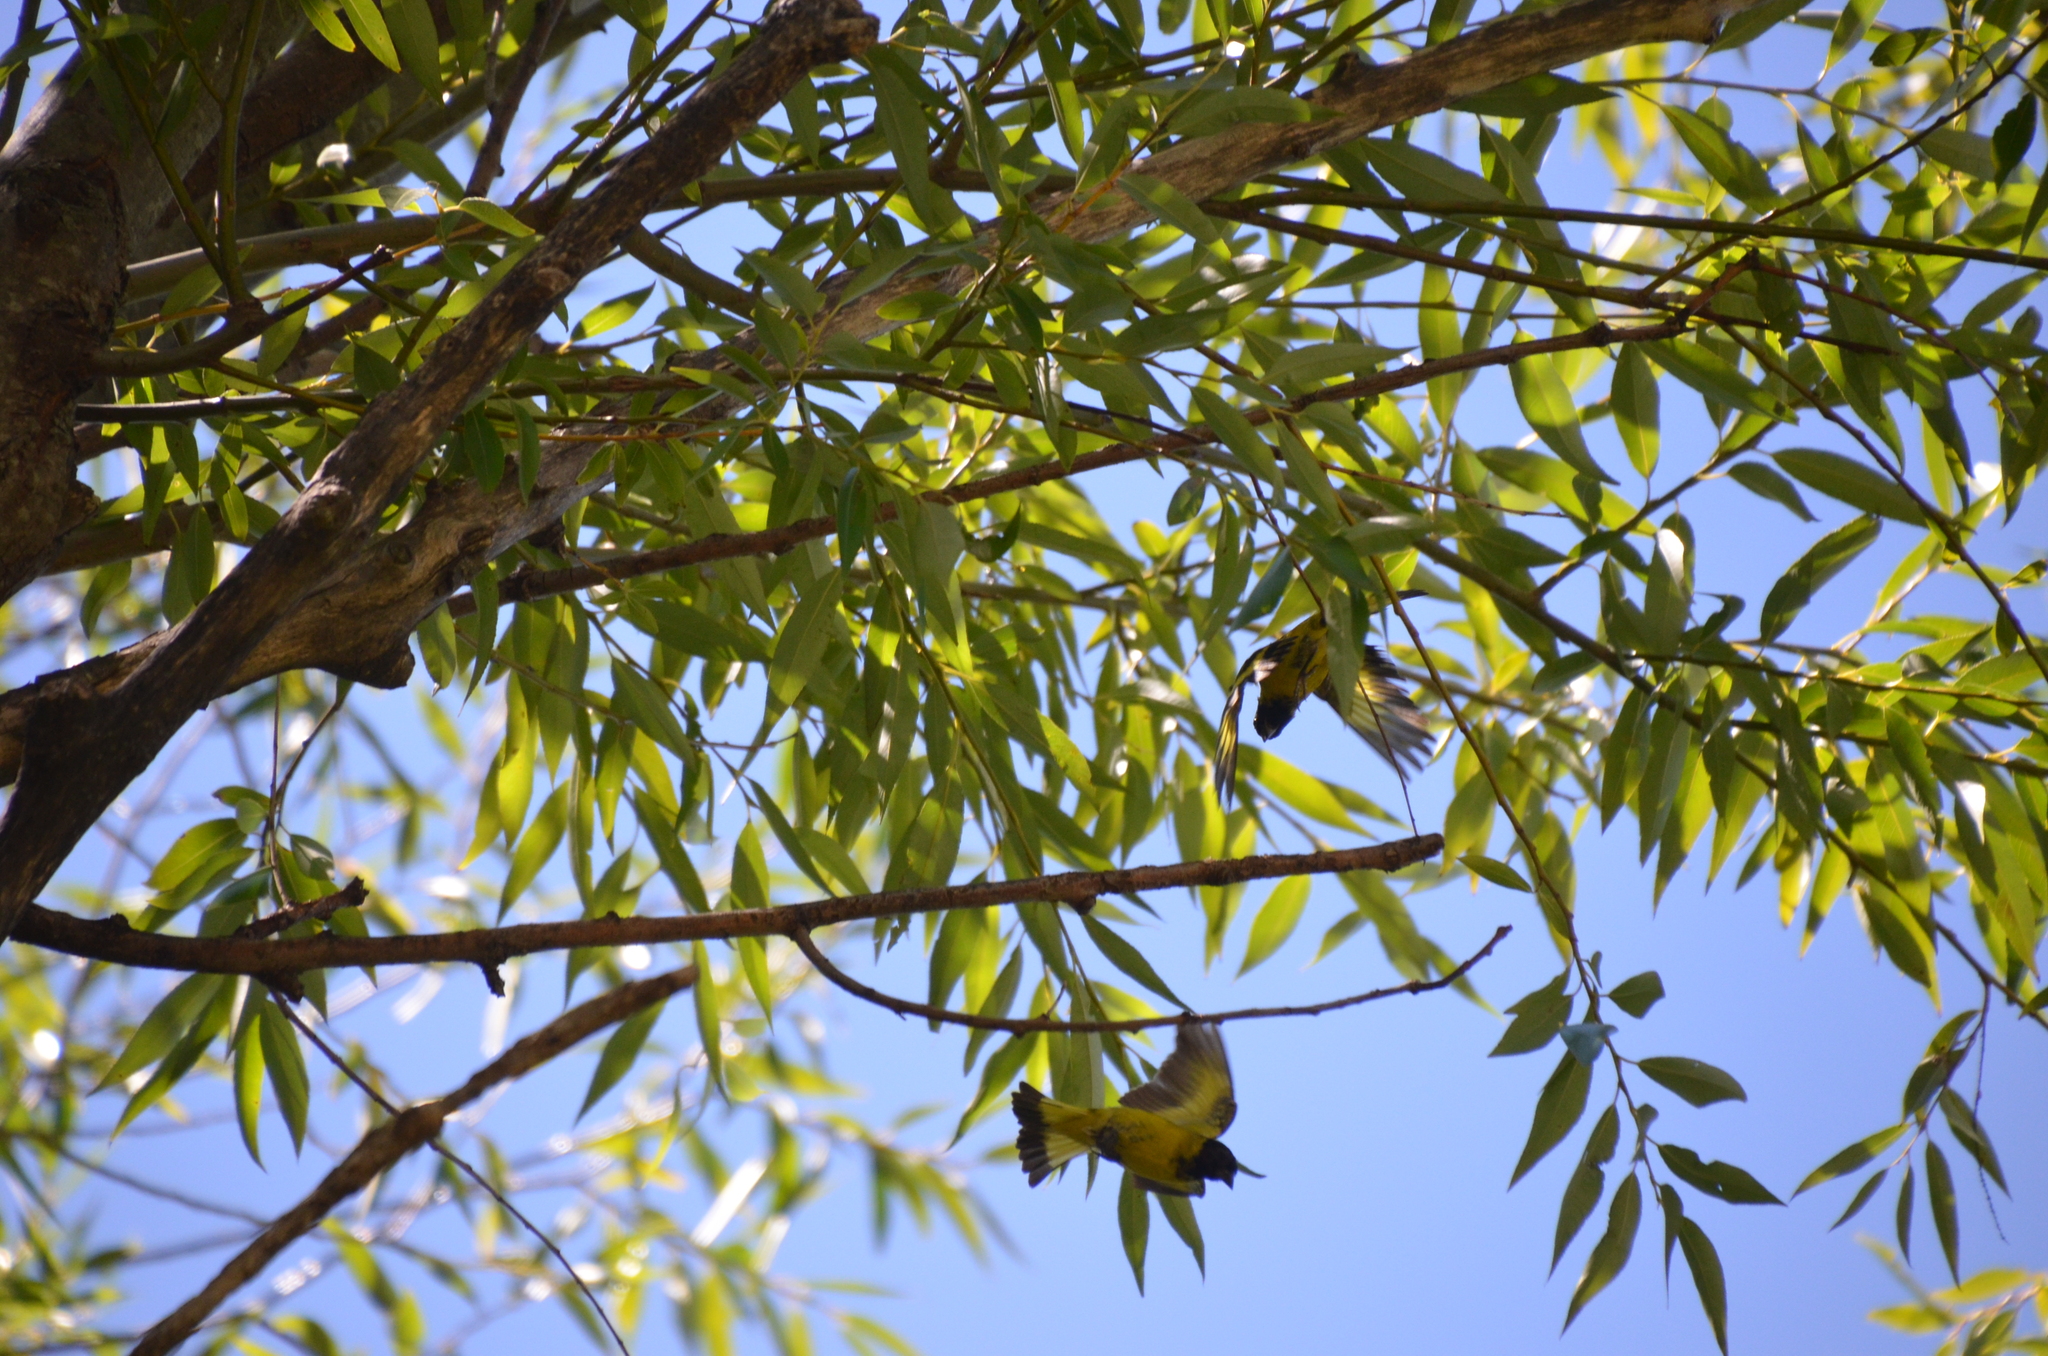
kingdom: Animalia
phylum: Chordata
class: Aves
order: Passeriformes
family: Fringillidae
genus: Spinus
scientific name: Spinus magellanicus
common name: Hooded siskin
